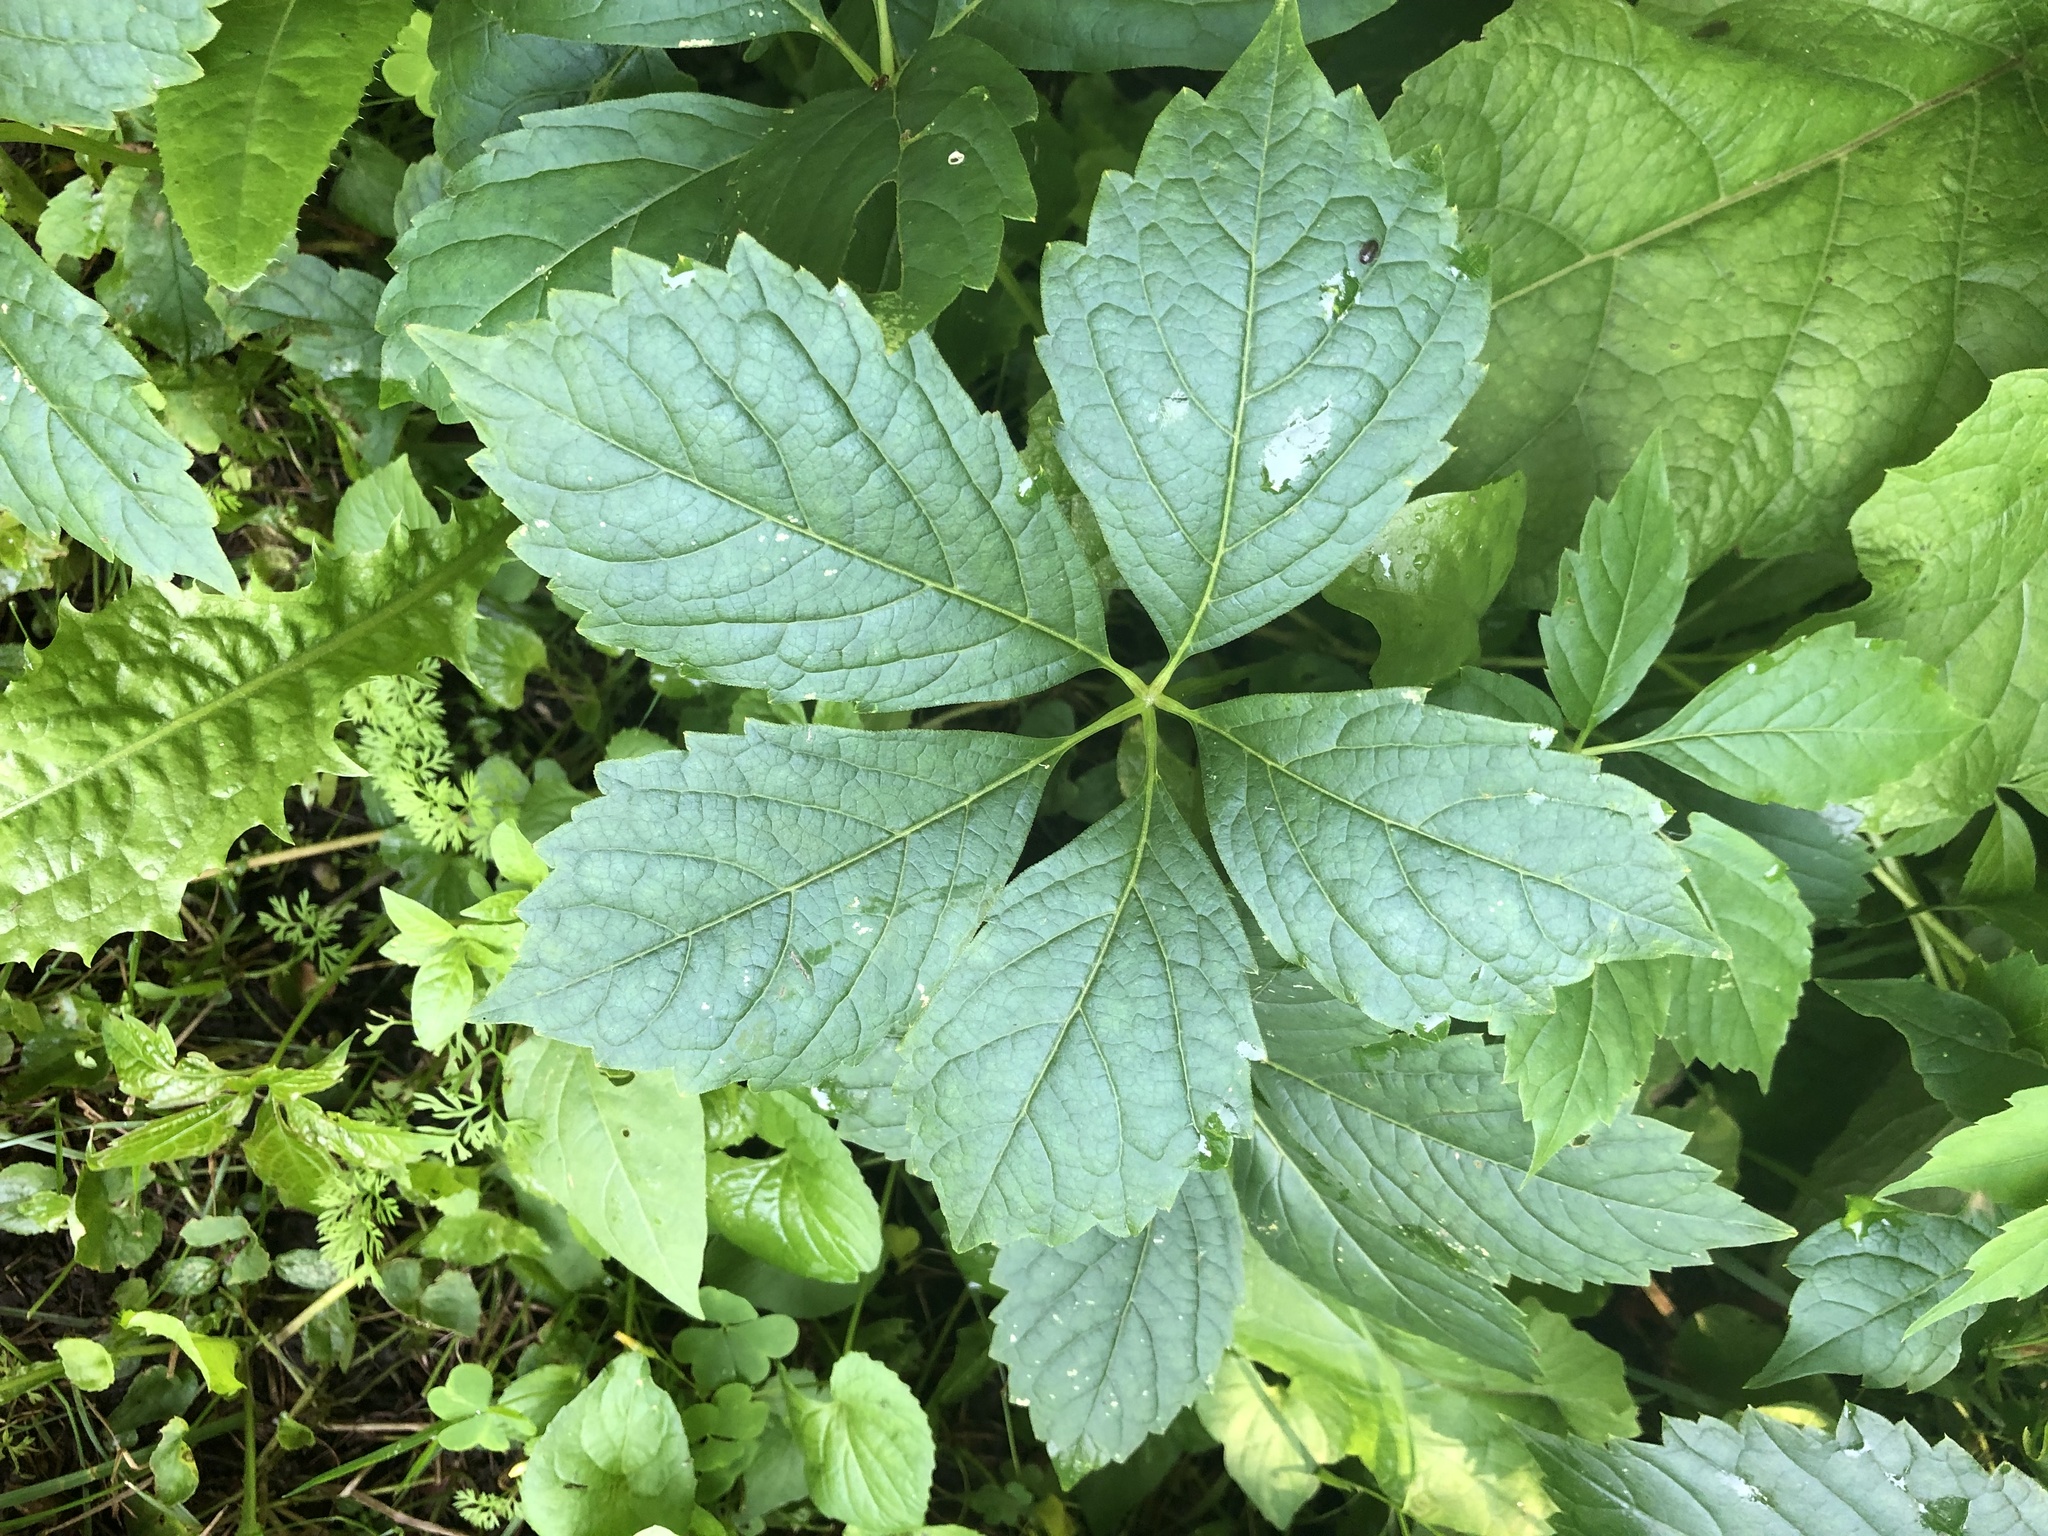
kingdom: Plantae
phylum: Tracheophyta
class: Magnoliopsida
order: Vitales
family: Vitaceae
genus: Parthenocissus
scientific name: Parthenocissus inserta
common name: False virginia-creeper
